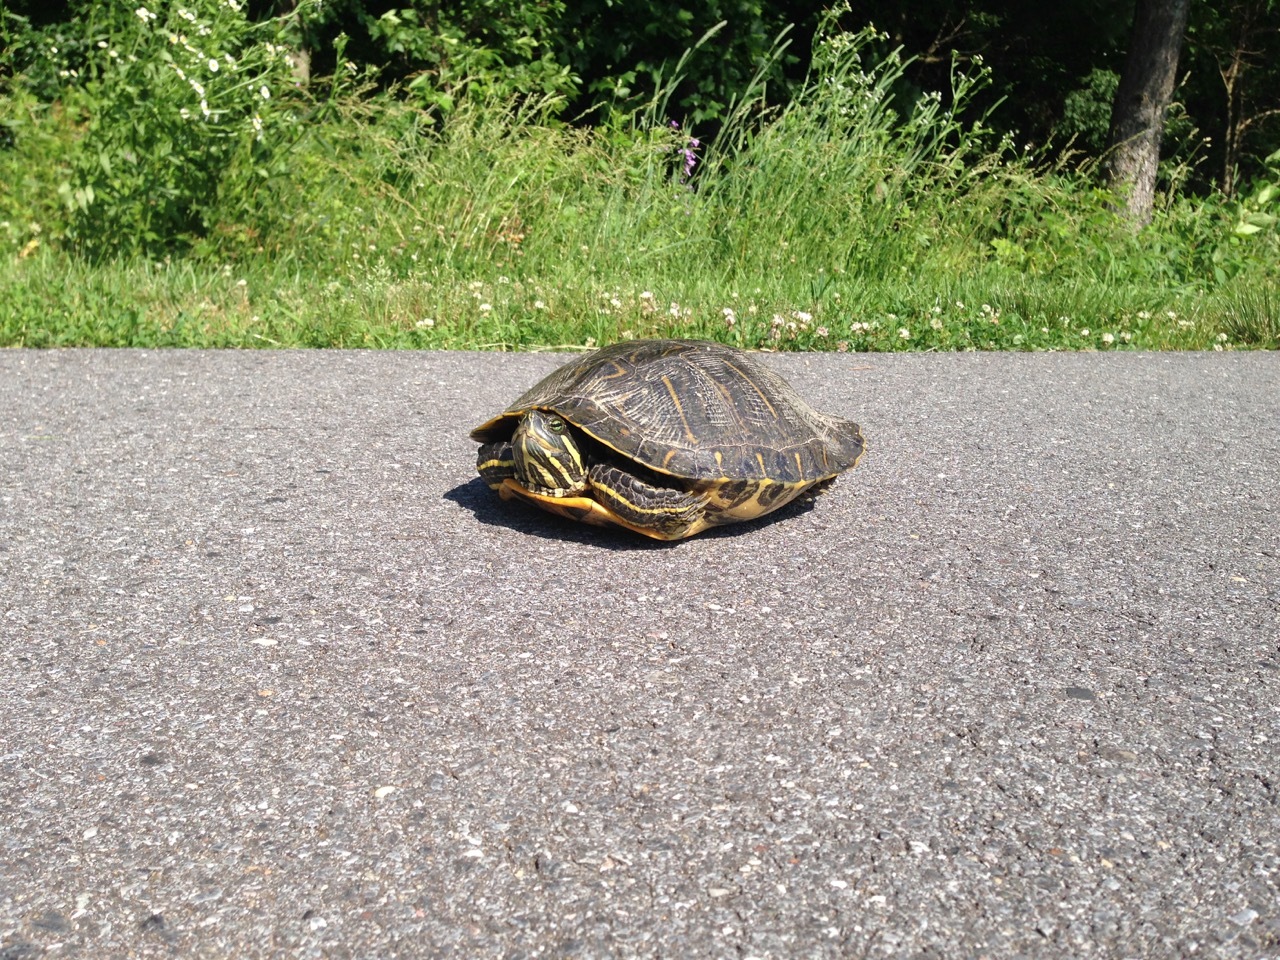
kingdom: Animalia
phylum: Chordata
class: Testudines
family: Emydidae
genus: Chrysemys
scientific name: Chrysemys picta
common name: Painted turtle
